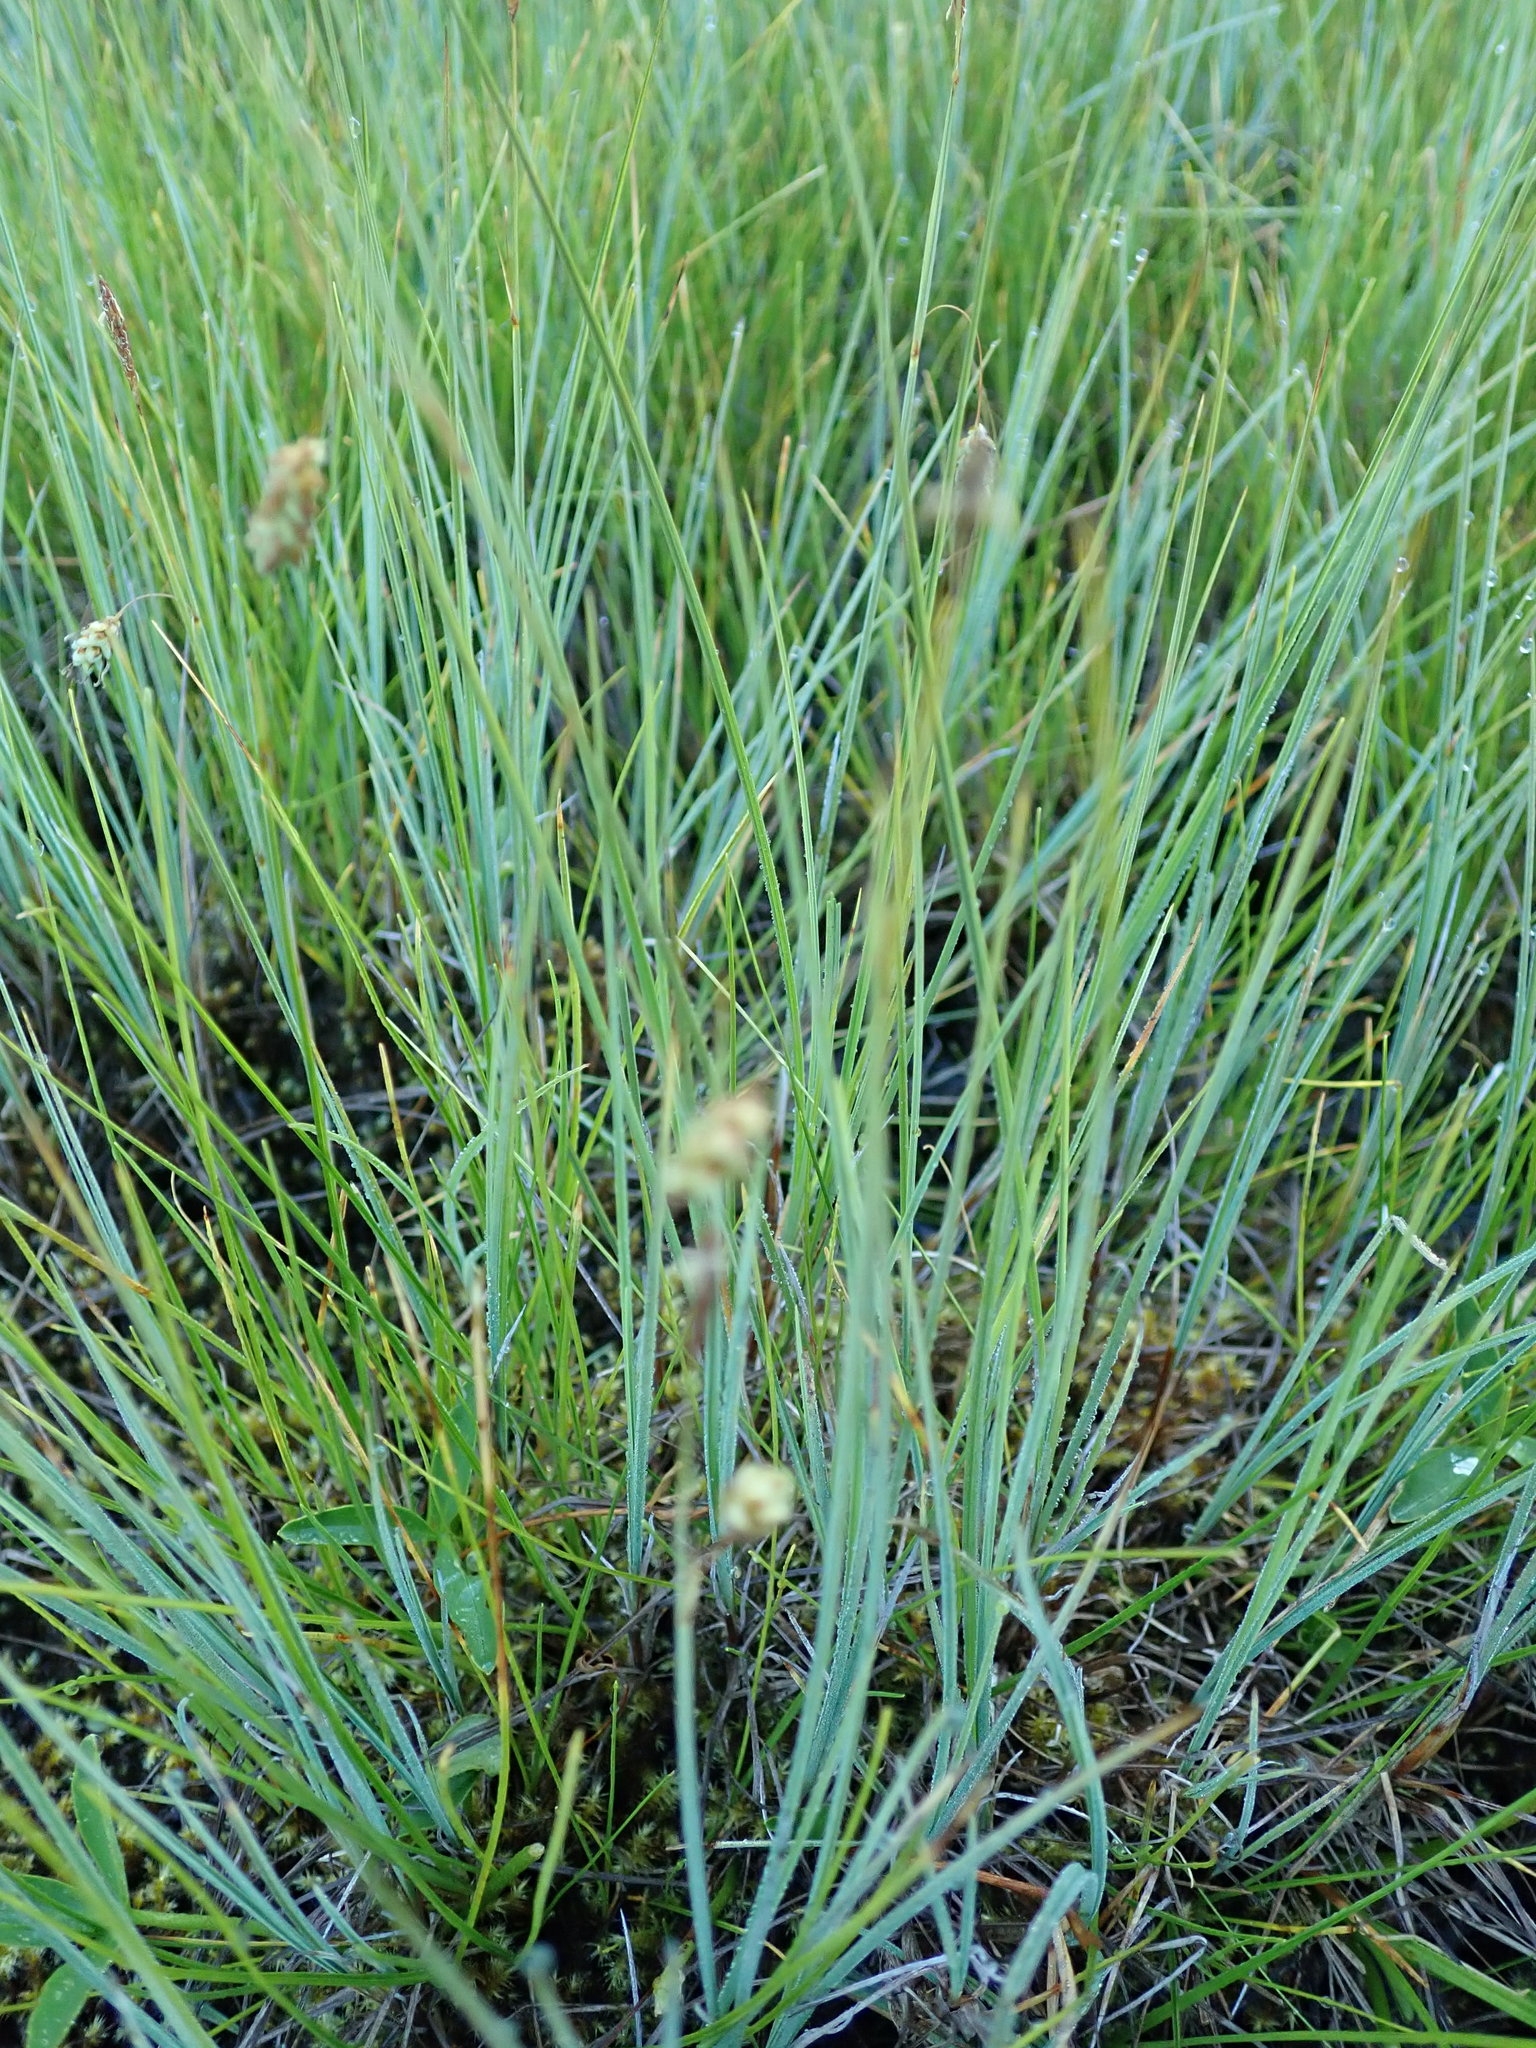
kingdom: Plantae
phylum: Tracheophyta
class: Liliopsida
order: Poales
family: Cyperaceae
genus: Carex
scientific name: Carex limosa
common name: Bog sedge
